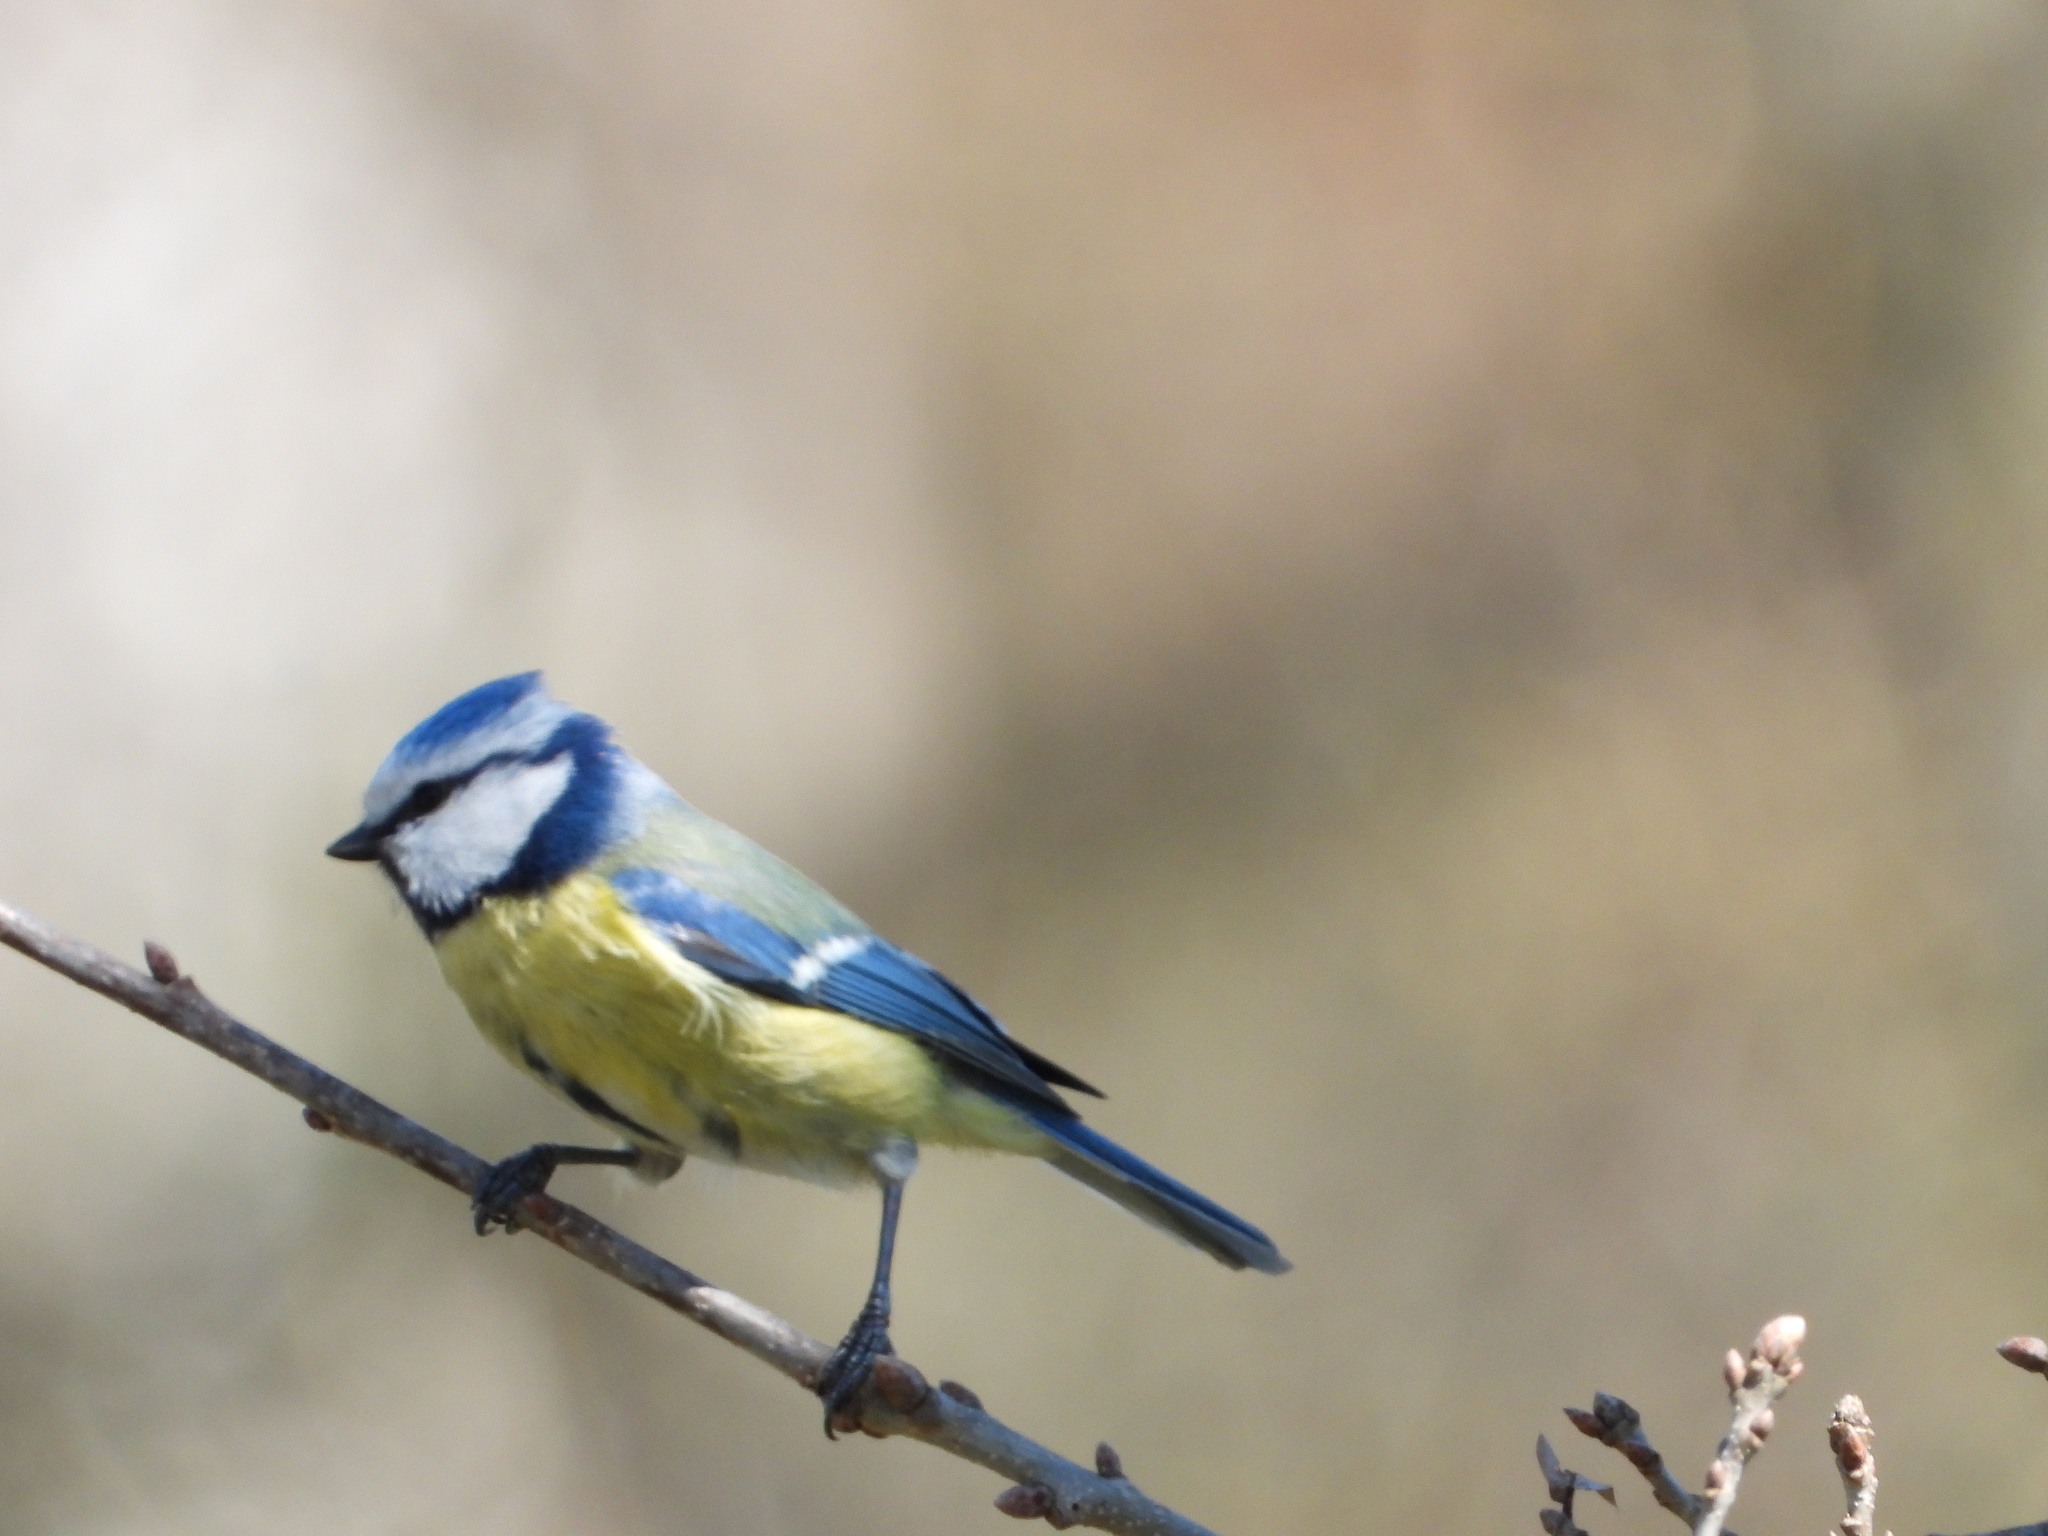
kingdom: Animalia
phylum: Chordata
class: Aves
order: Passeriformes
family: Paridae
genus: Cyanistes
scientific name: Cyanistes caeruleus
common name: Eurasian blue tit
